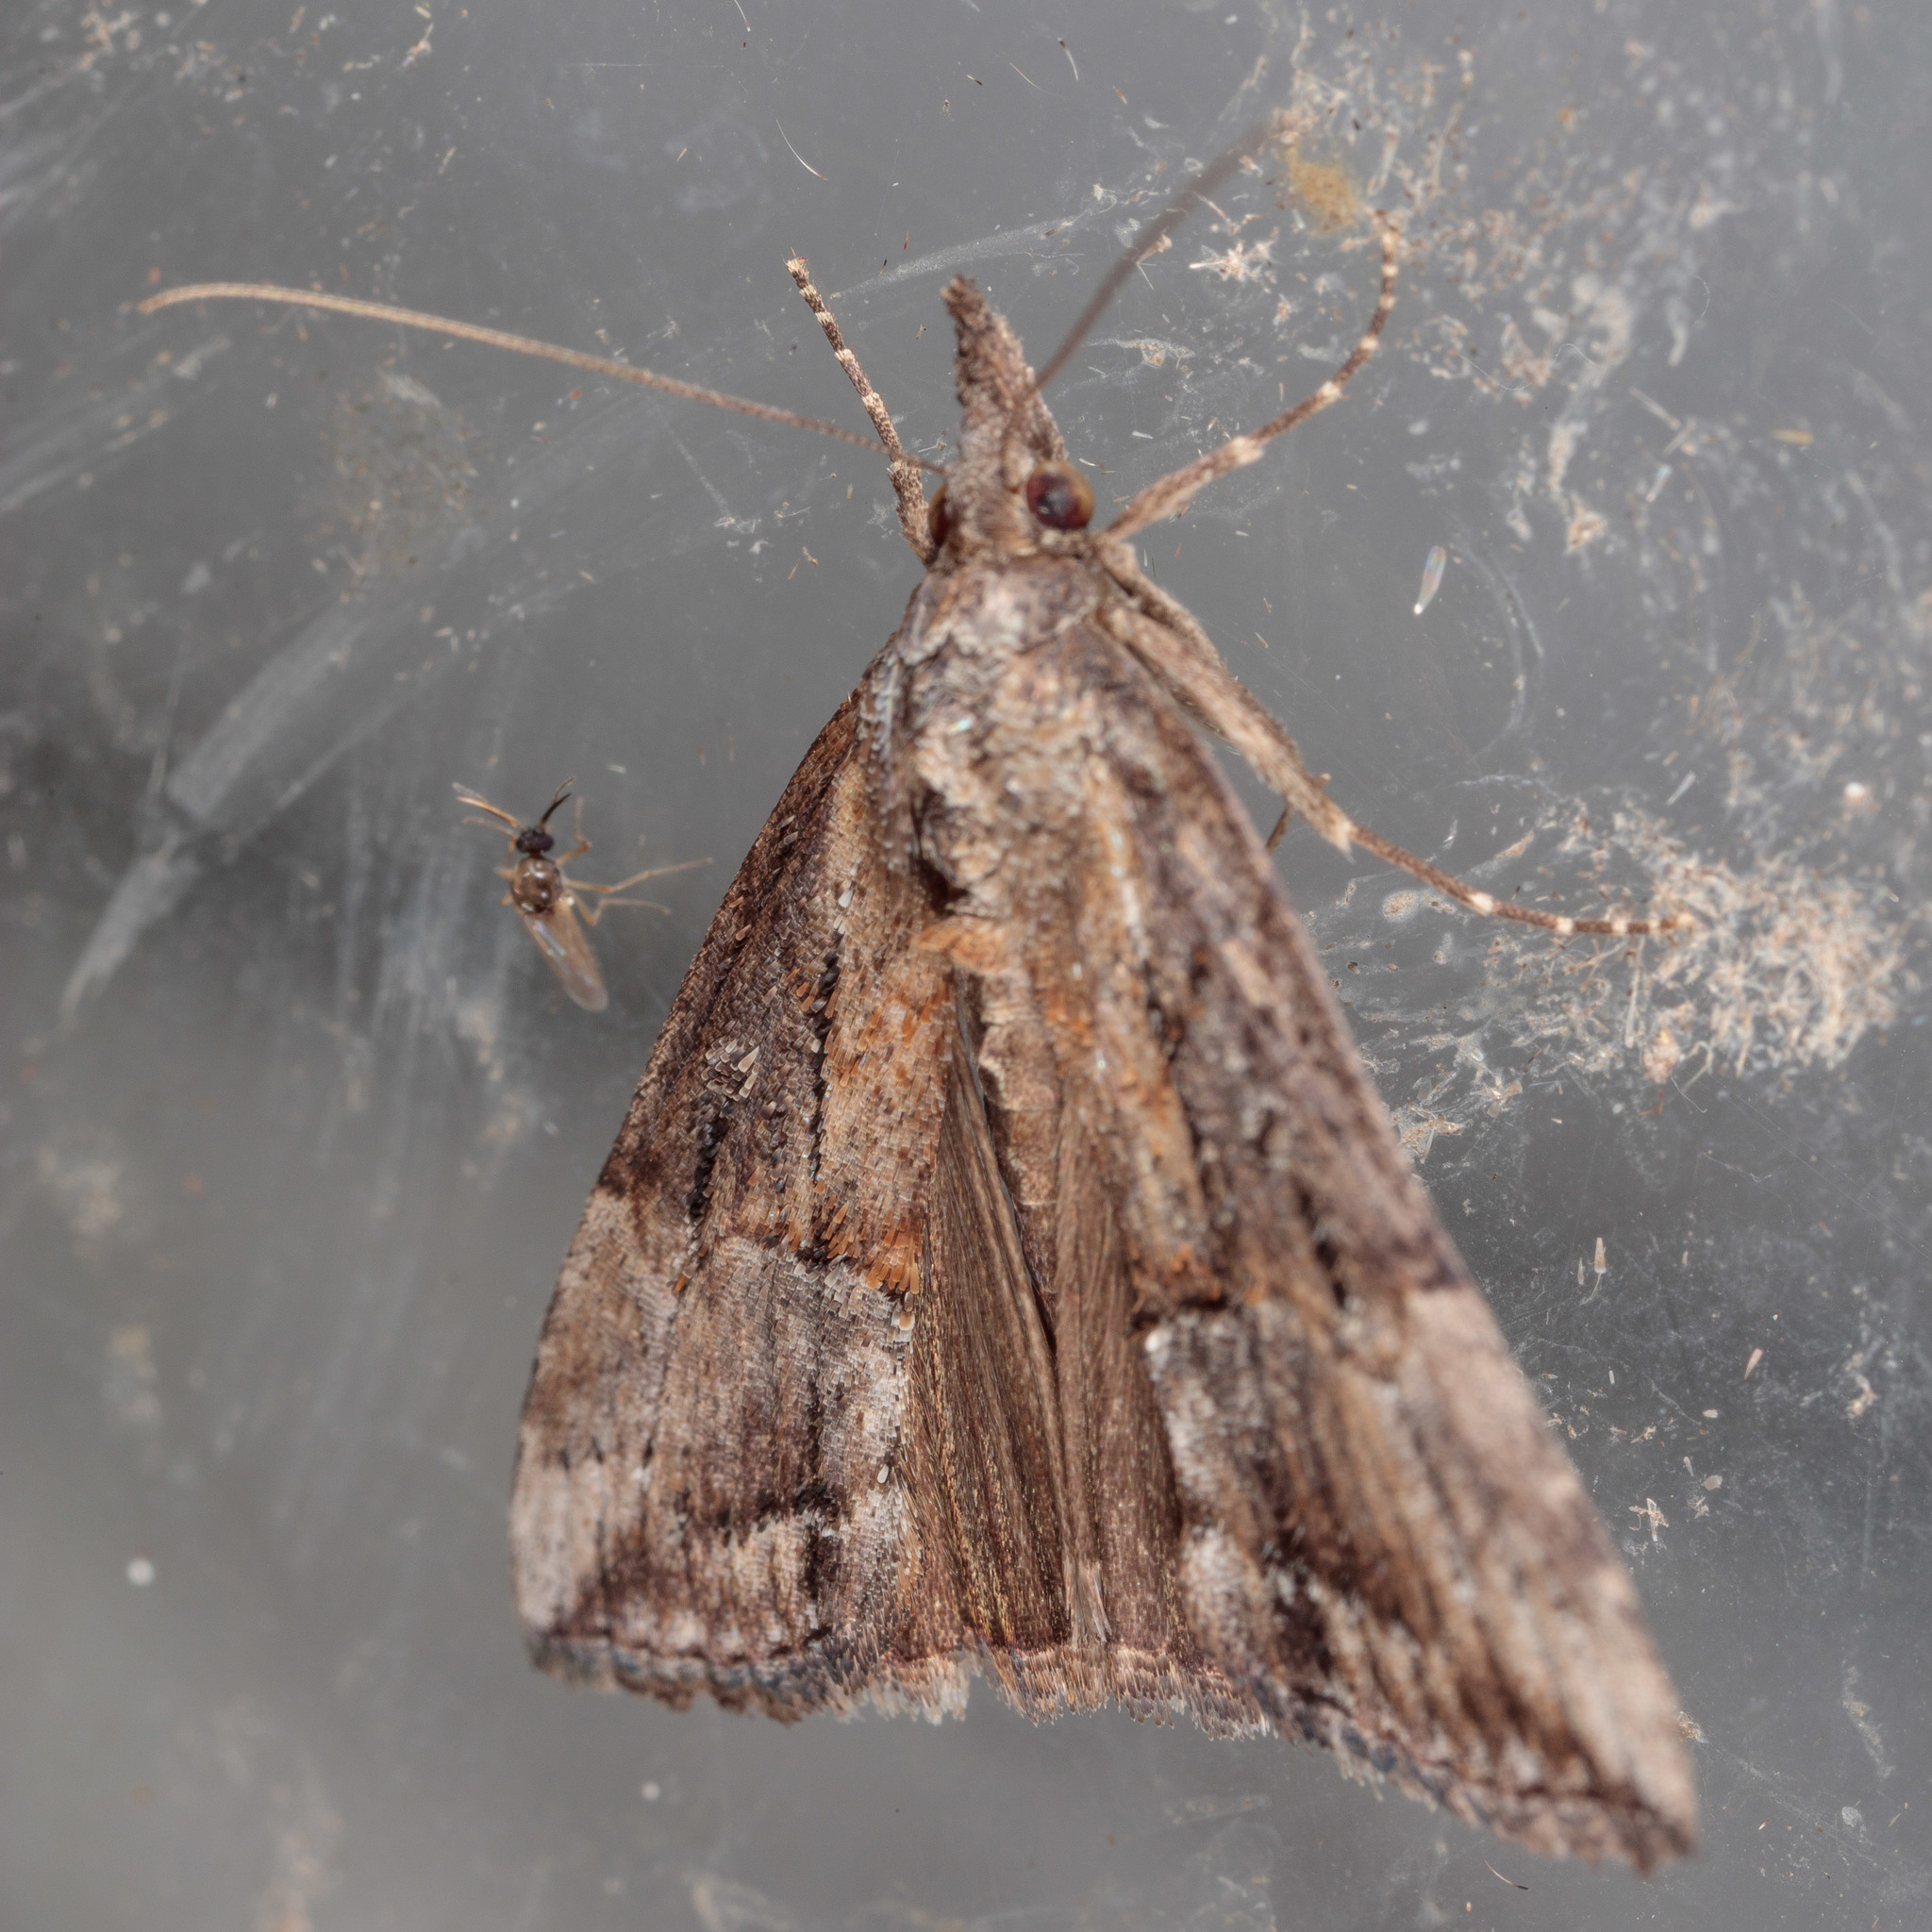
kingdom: Animalia
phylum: Arthropoda
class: Insecta
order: Lepidoptera
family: Erebidae
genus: Hypena
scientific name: Hypena scabra
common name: Green cloverworm
